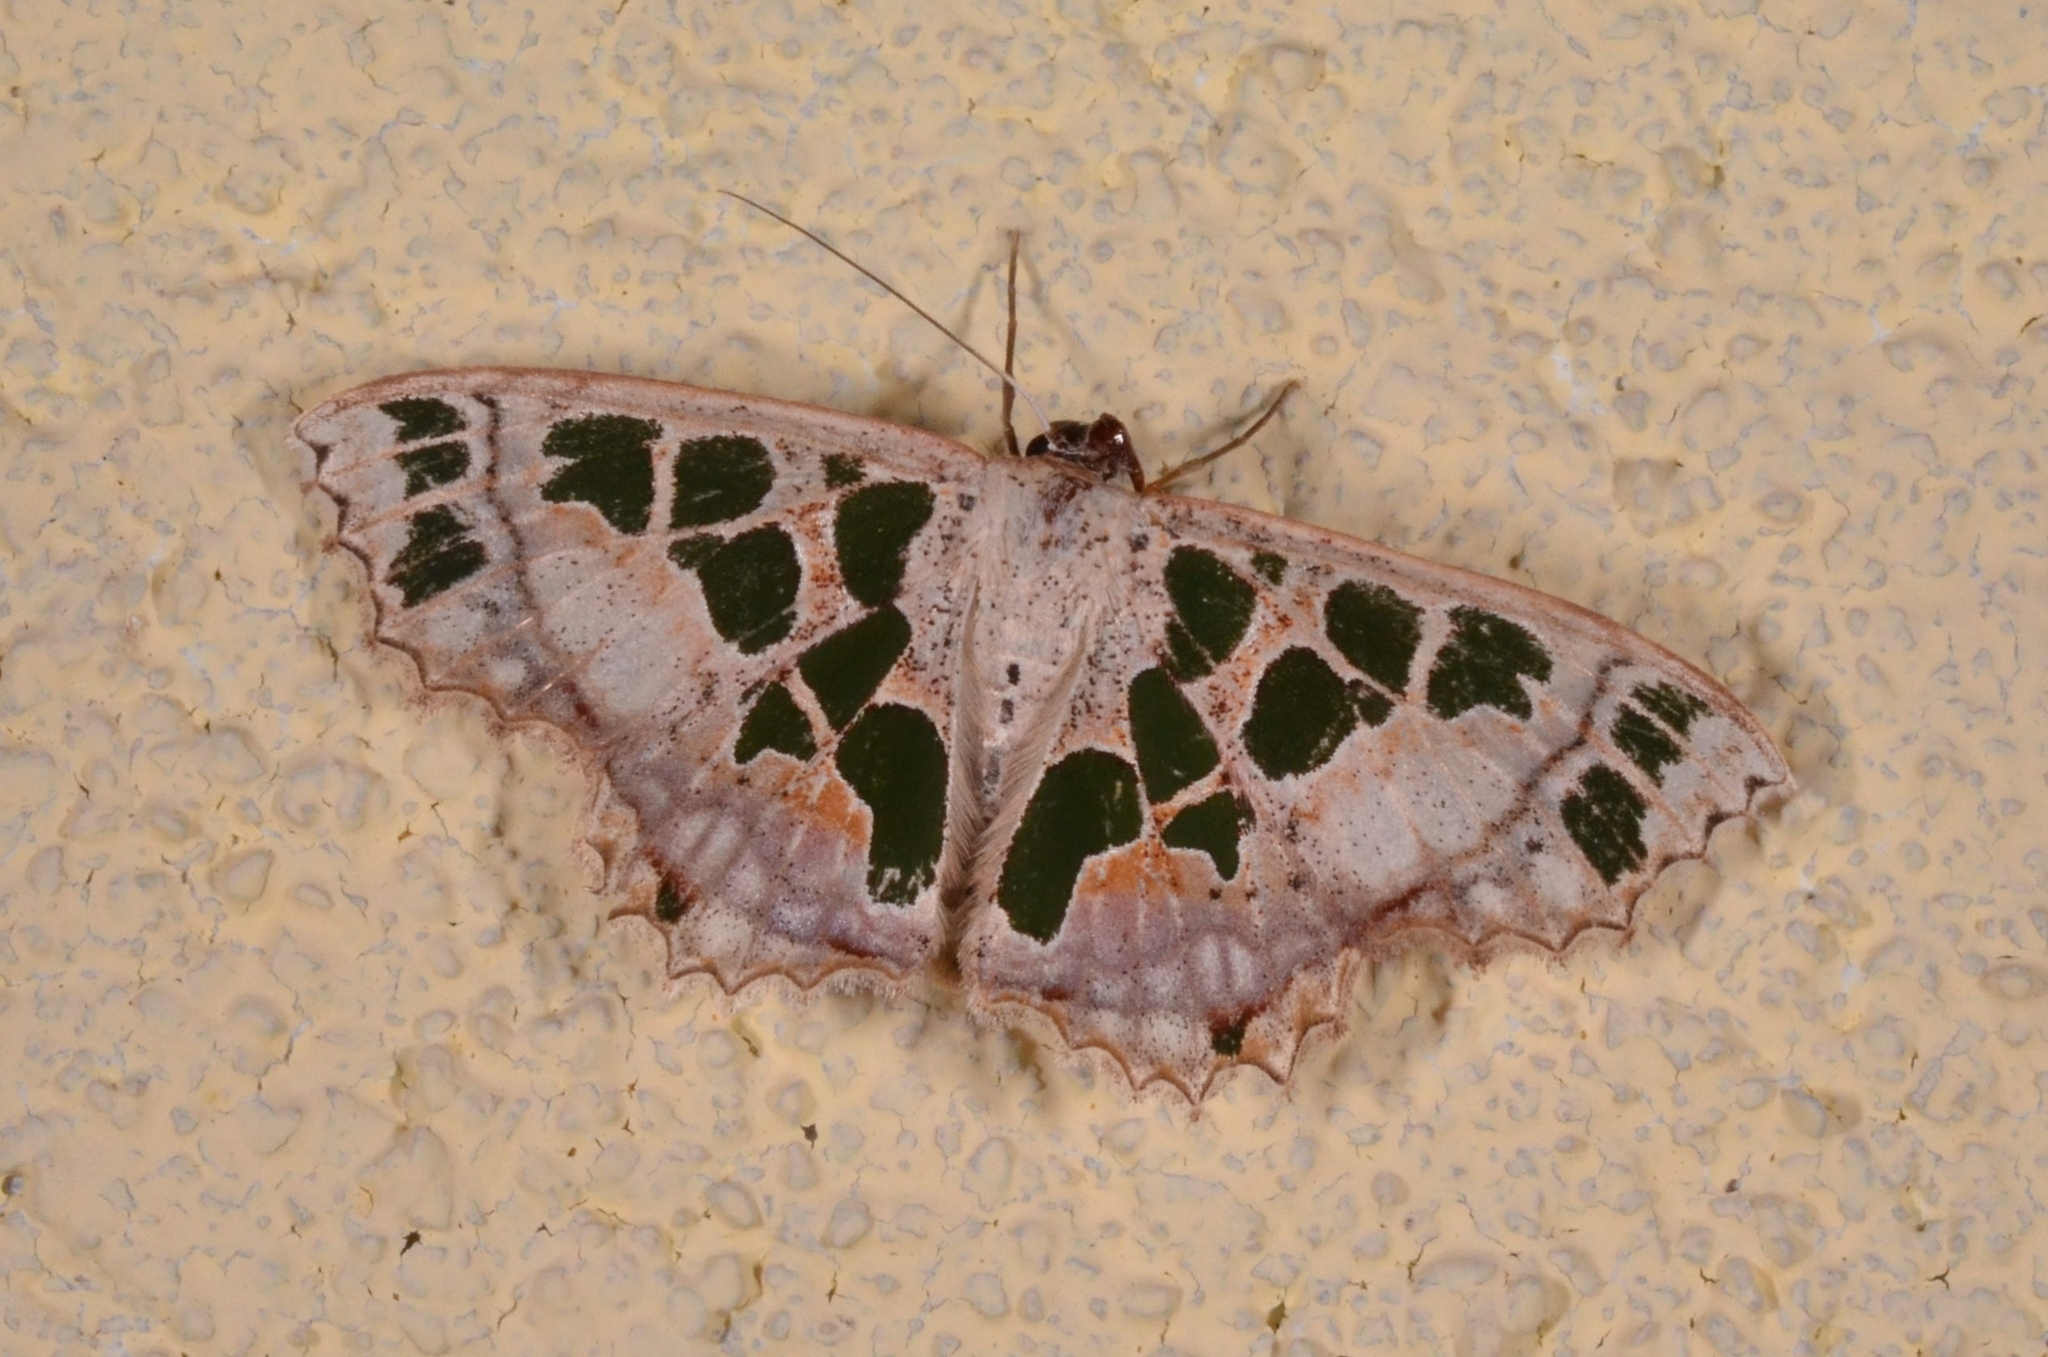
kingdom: Animalia
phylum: Arthropoda
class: Insecta
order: Lepidoptera
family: Geometridae
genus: Scopula
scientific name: Scopula divisaria
